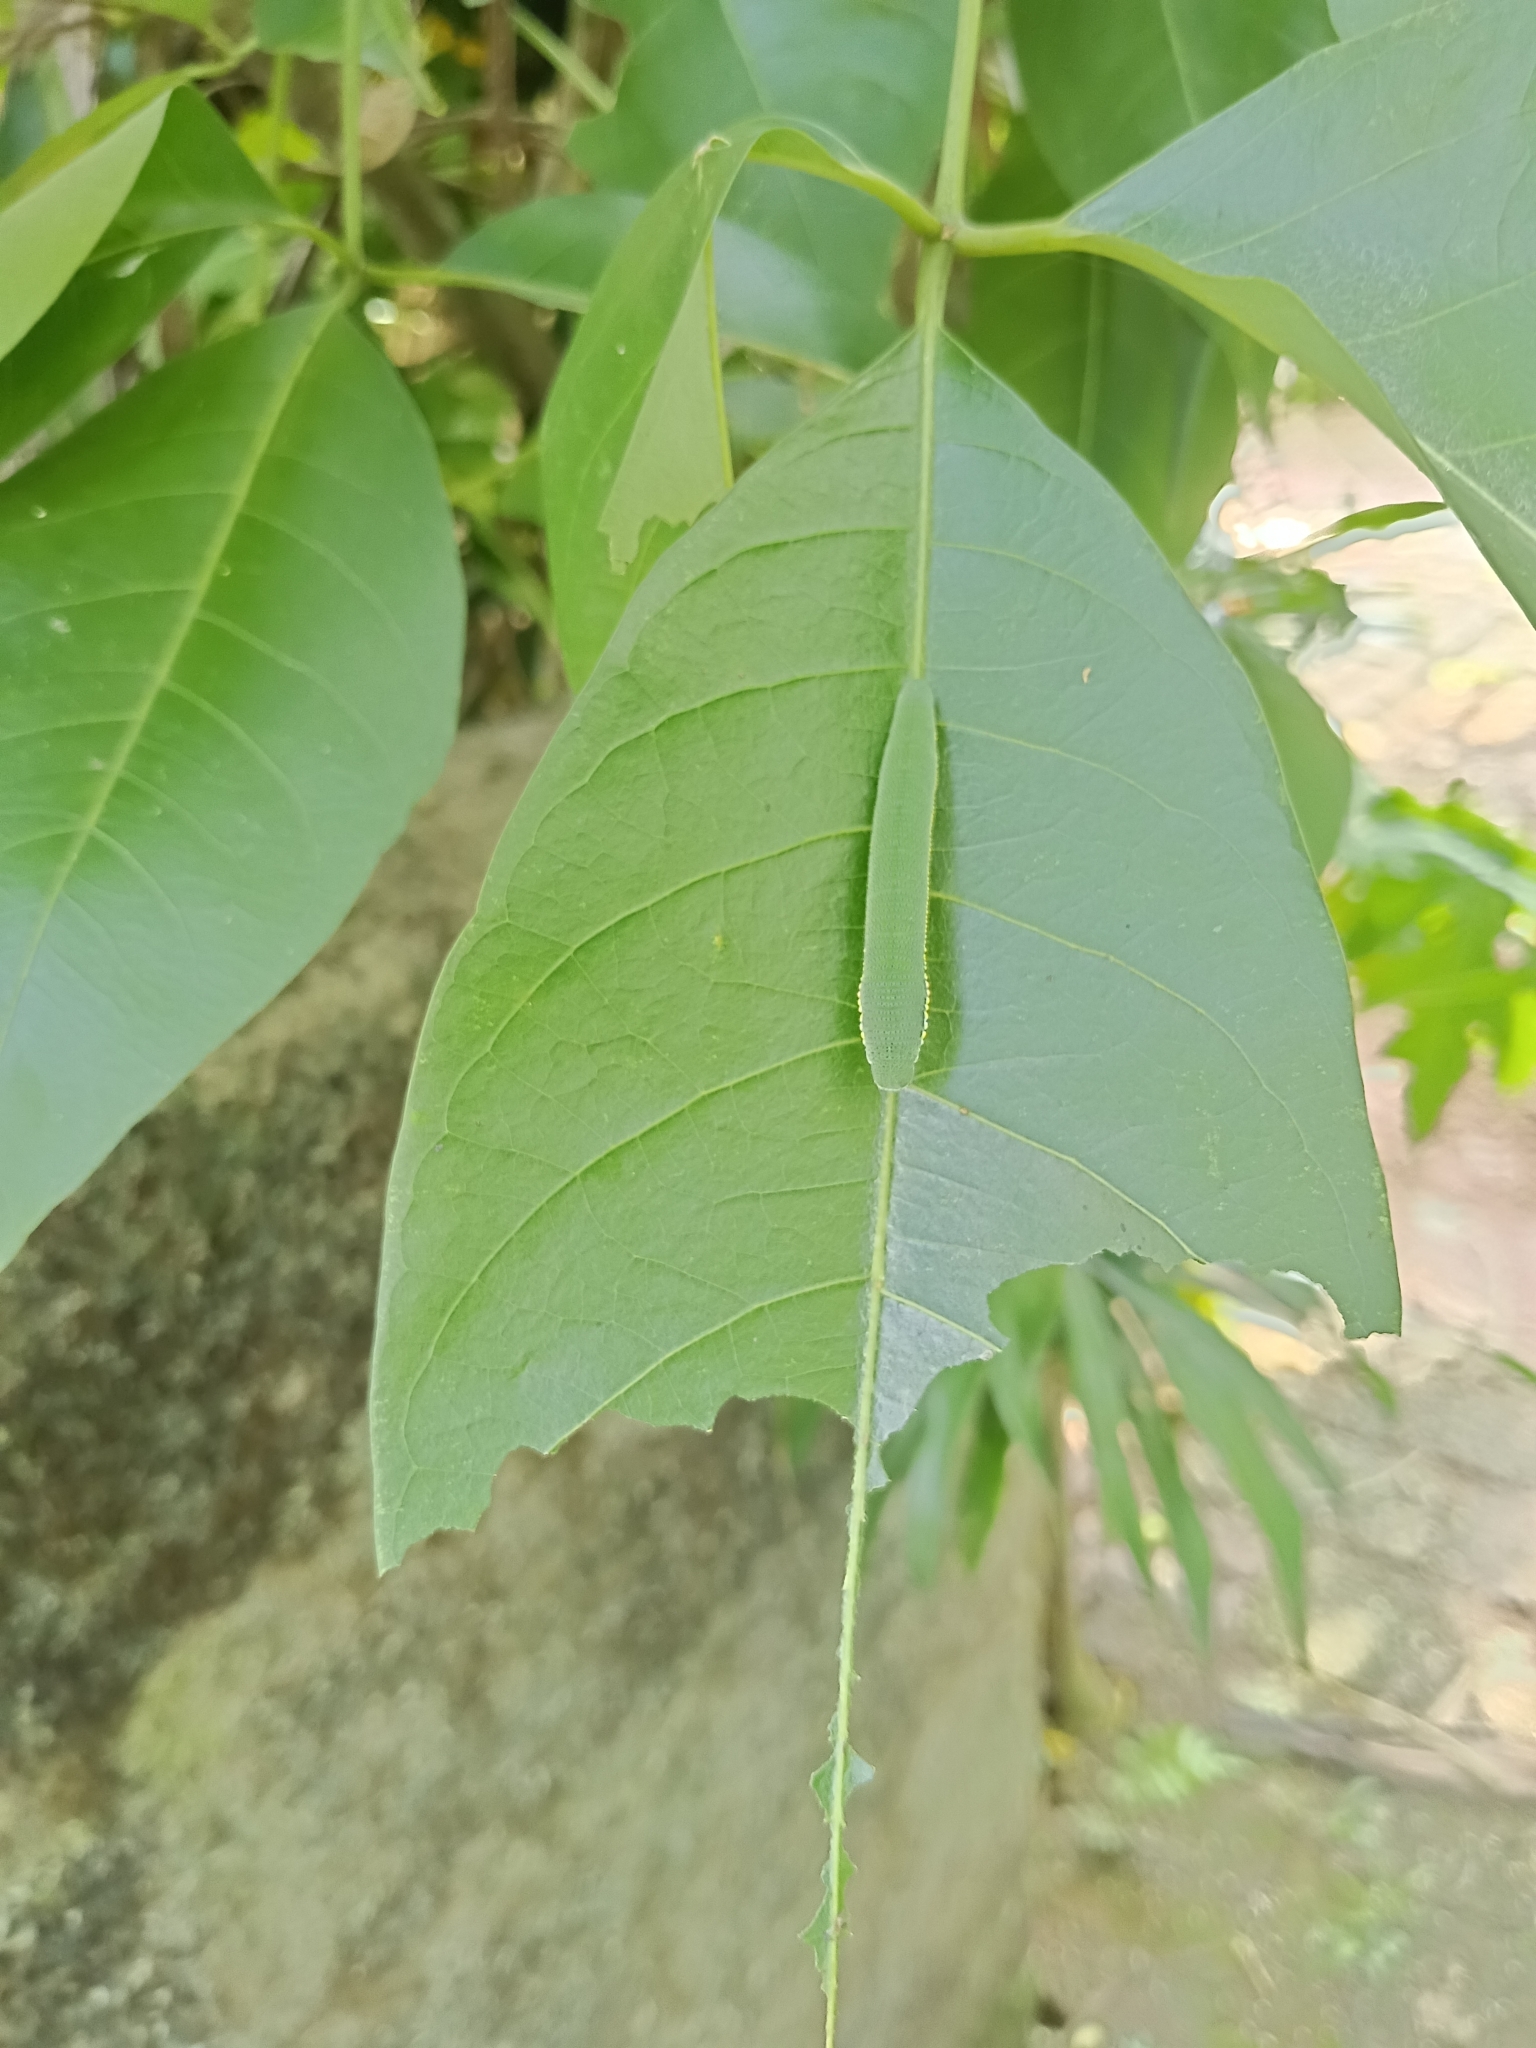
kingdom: Animalia
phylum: Arthropoda
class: Insecta
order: Lepidoptera
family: Pieridae
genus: Hebomoia
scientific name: Hebomoia glaucippe
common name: Great orange tip
